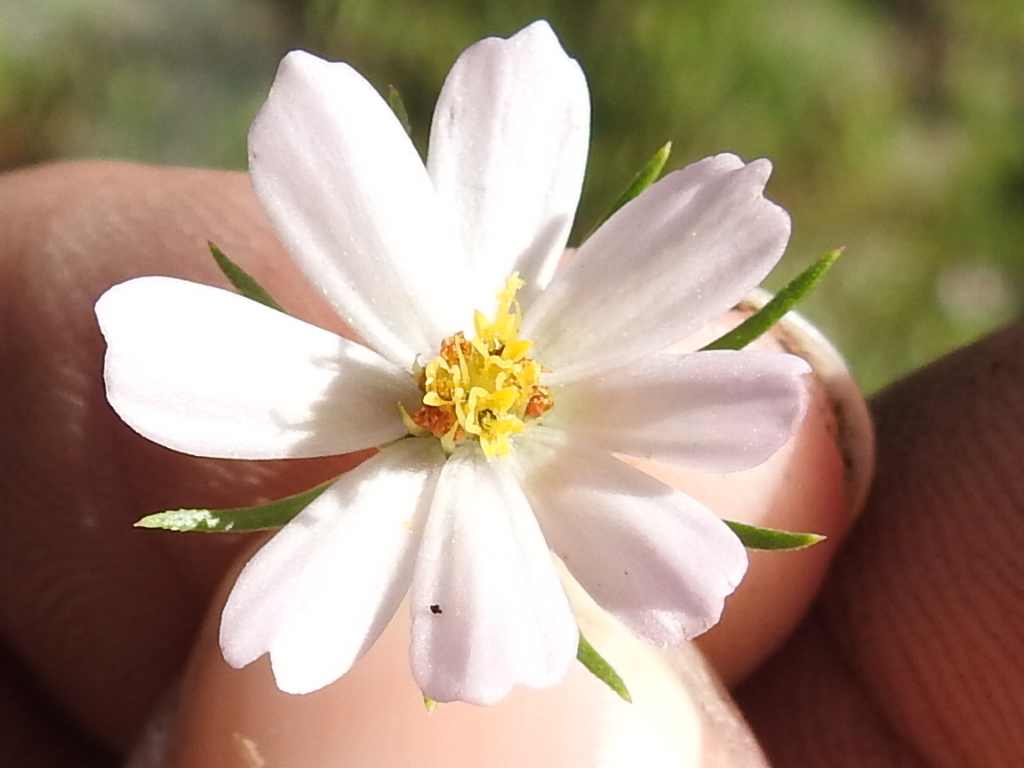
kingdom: Plantae
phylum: Tracheophyta
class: Magnoliopsida
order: Asterales
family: Asteraceae
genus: Cosmos
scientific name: Cosmos parviflorus
